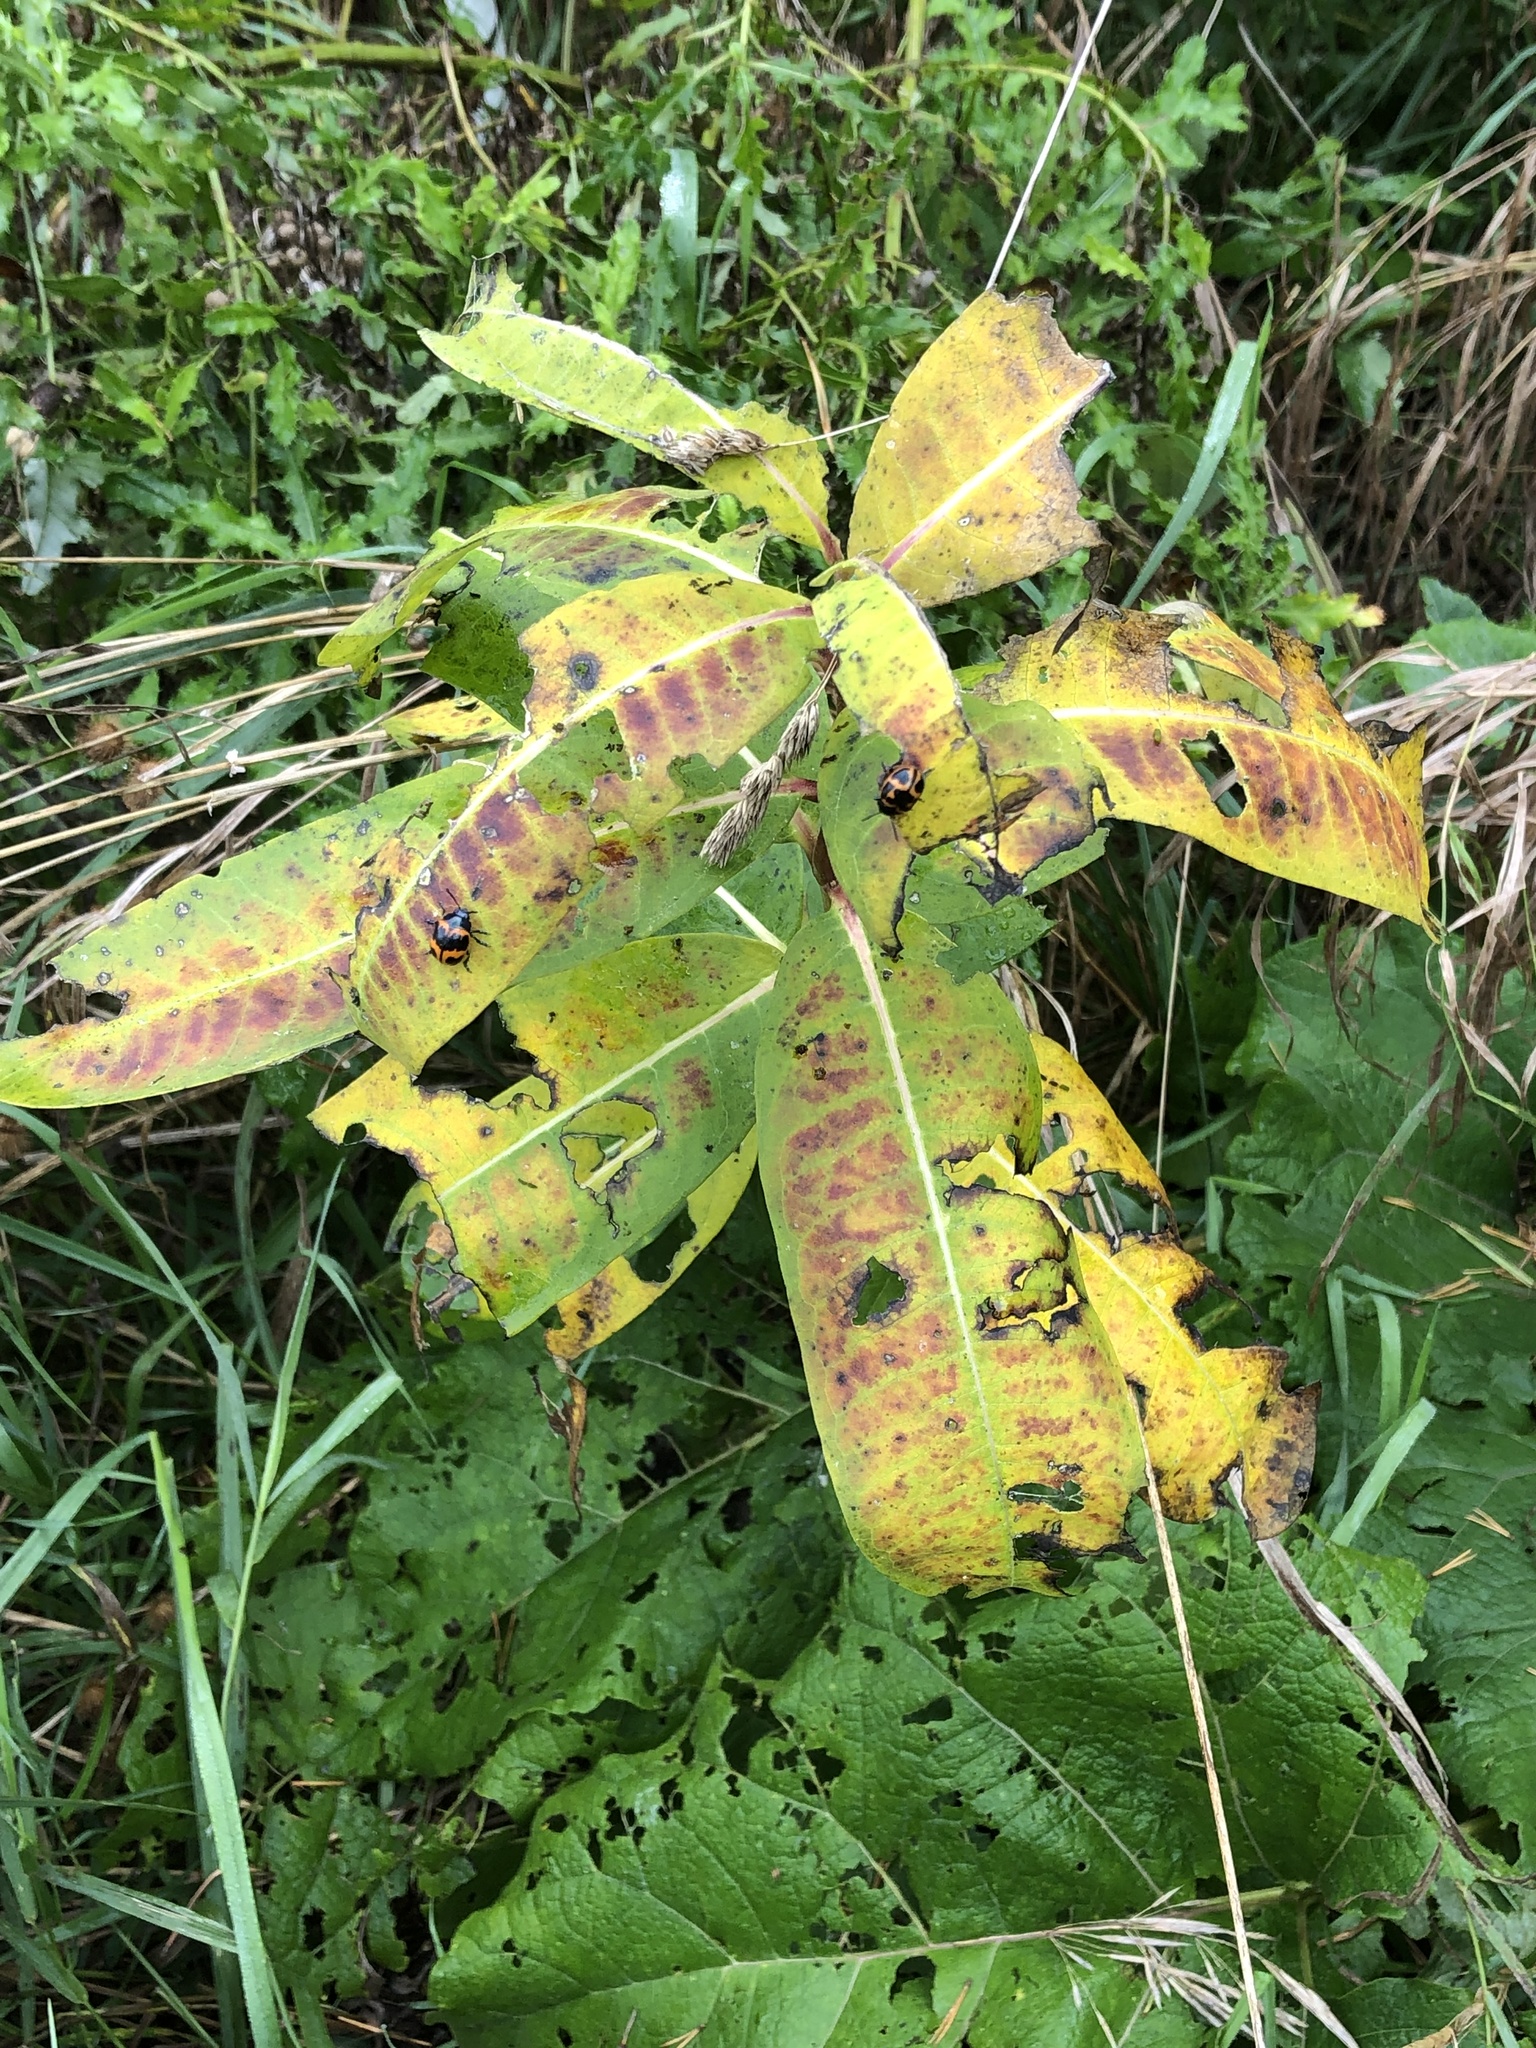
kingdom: Plantae
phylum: Tracheophyta
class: Magnoliopsida
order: Gentianales
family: Apocynaceae
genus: Asclepias
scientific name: Asclepias syriaca
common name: Common milkweed
